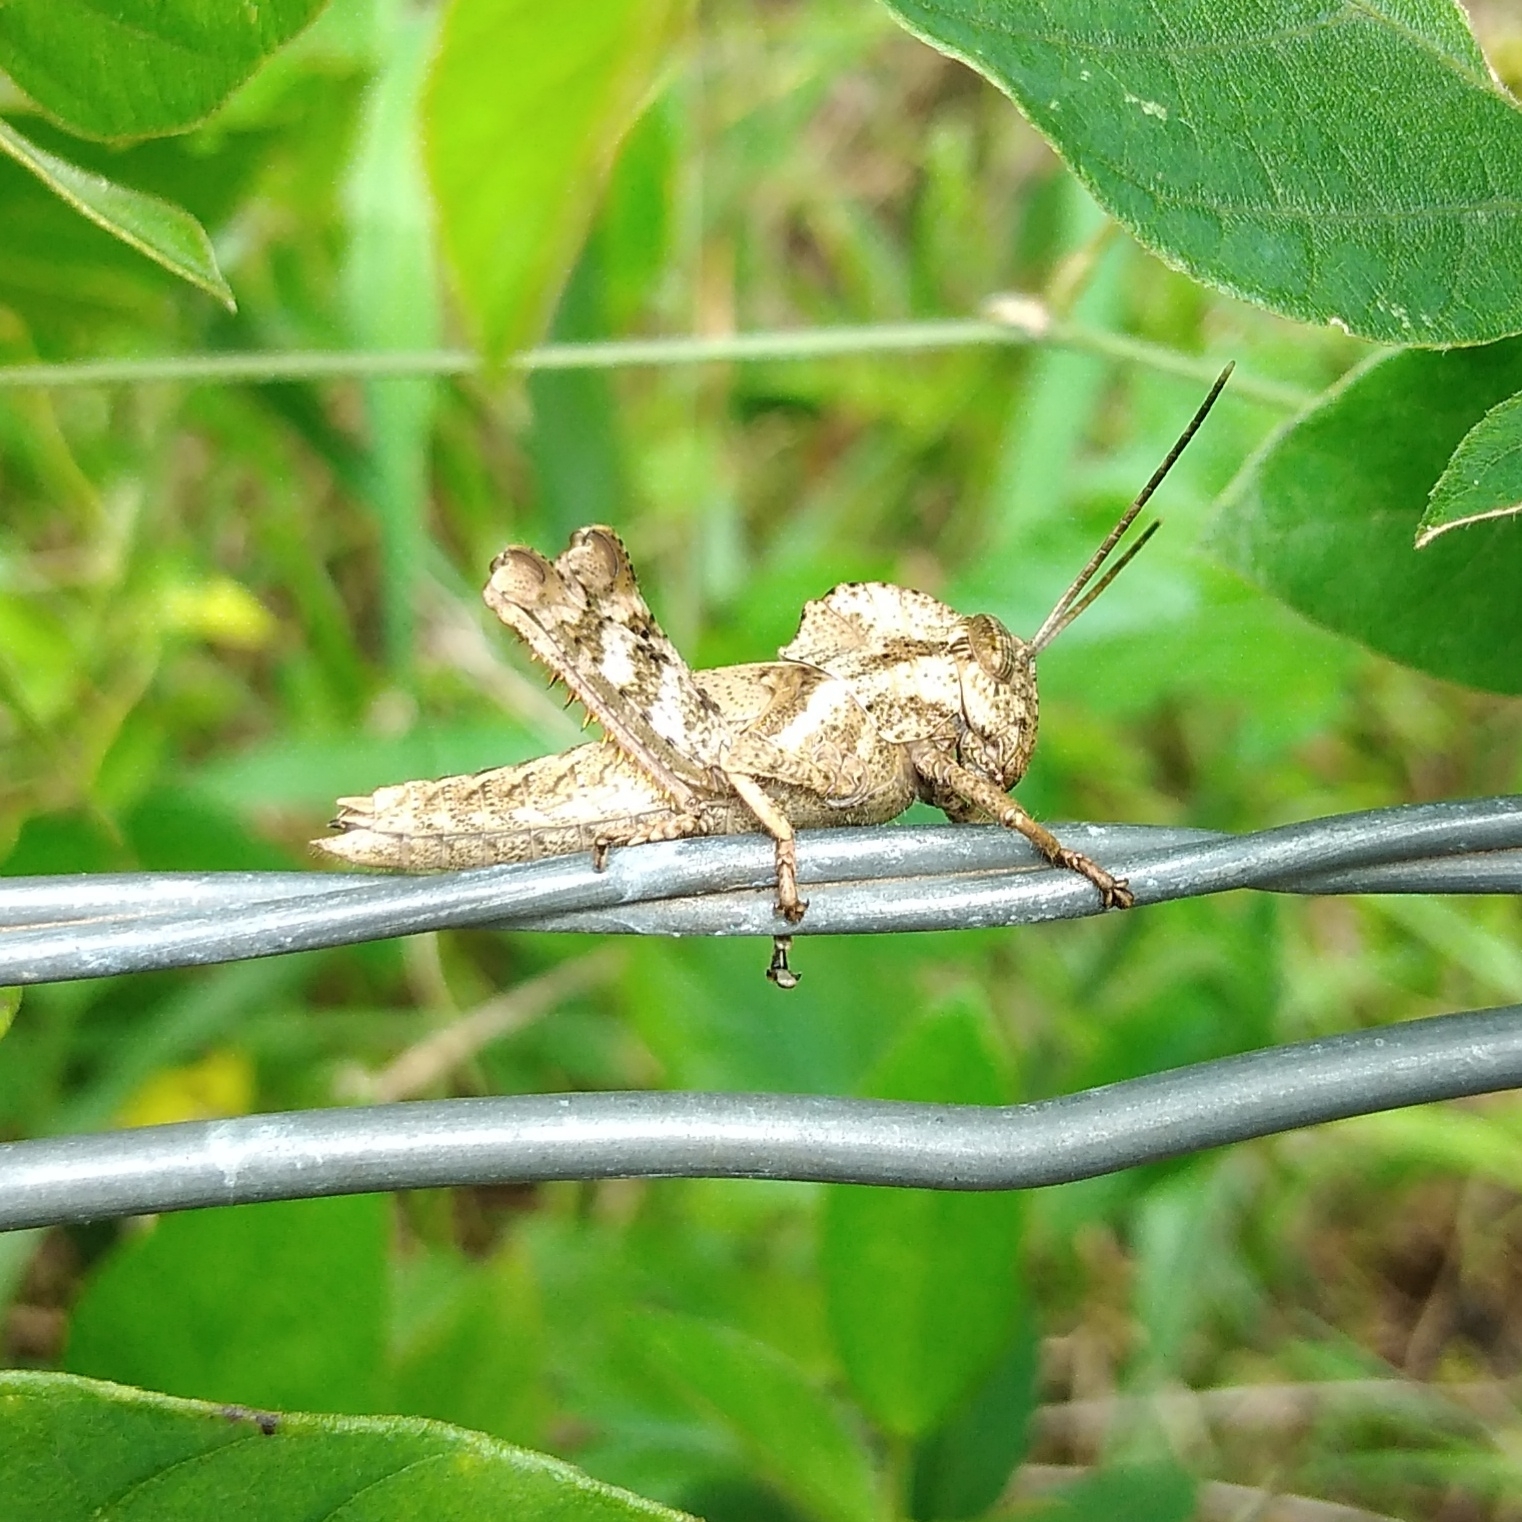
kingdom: Animalia
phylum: Arthropoda
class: Insecta
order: Orthoptera
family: Acrididae
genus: Abisares
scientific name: Abisares viridipenne
